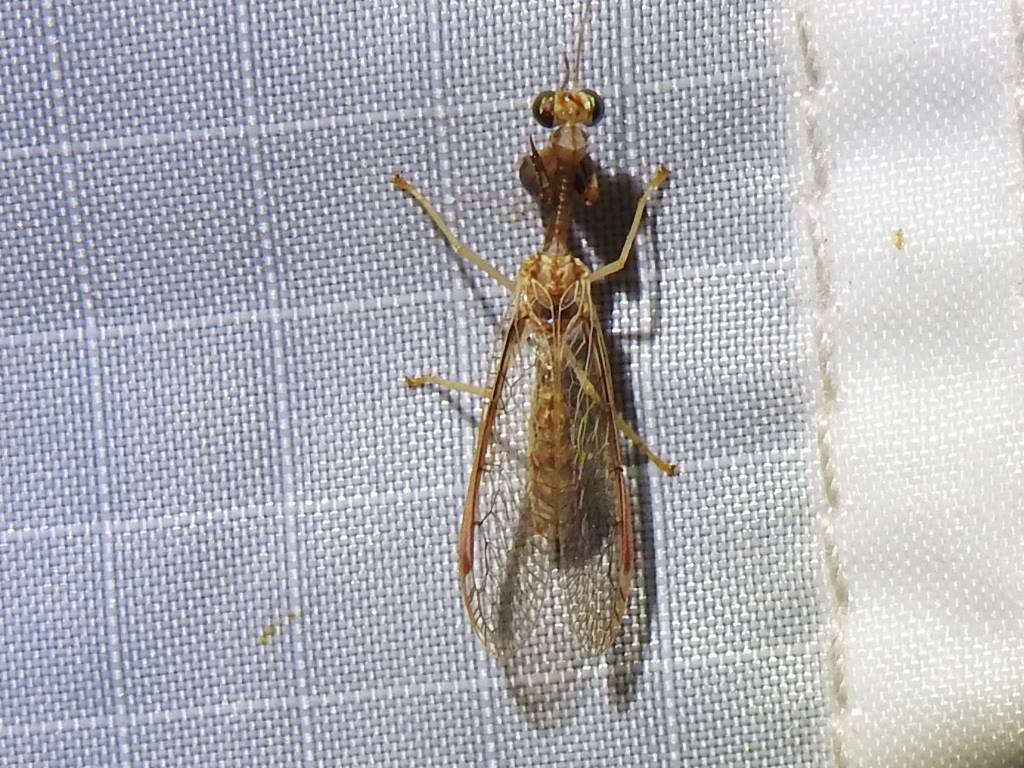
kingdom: Animalia
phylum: Arthropoda
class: Insecta
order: Neuroptera
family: Mantispidae
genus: Dicromantispa
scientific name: Dicromantispa sayi
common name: Say's mantidfly
